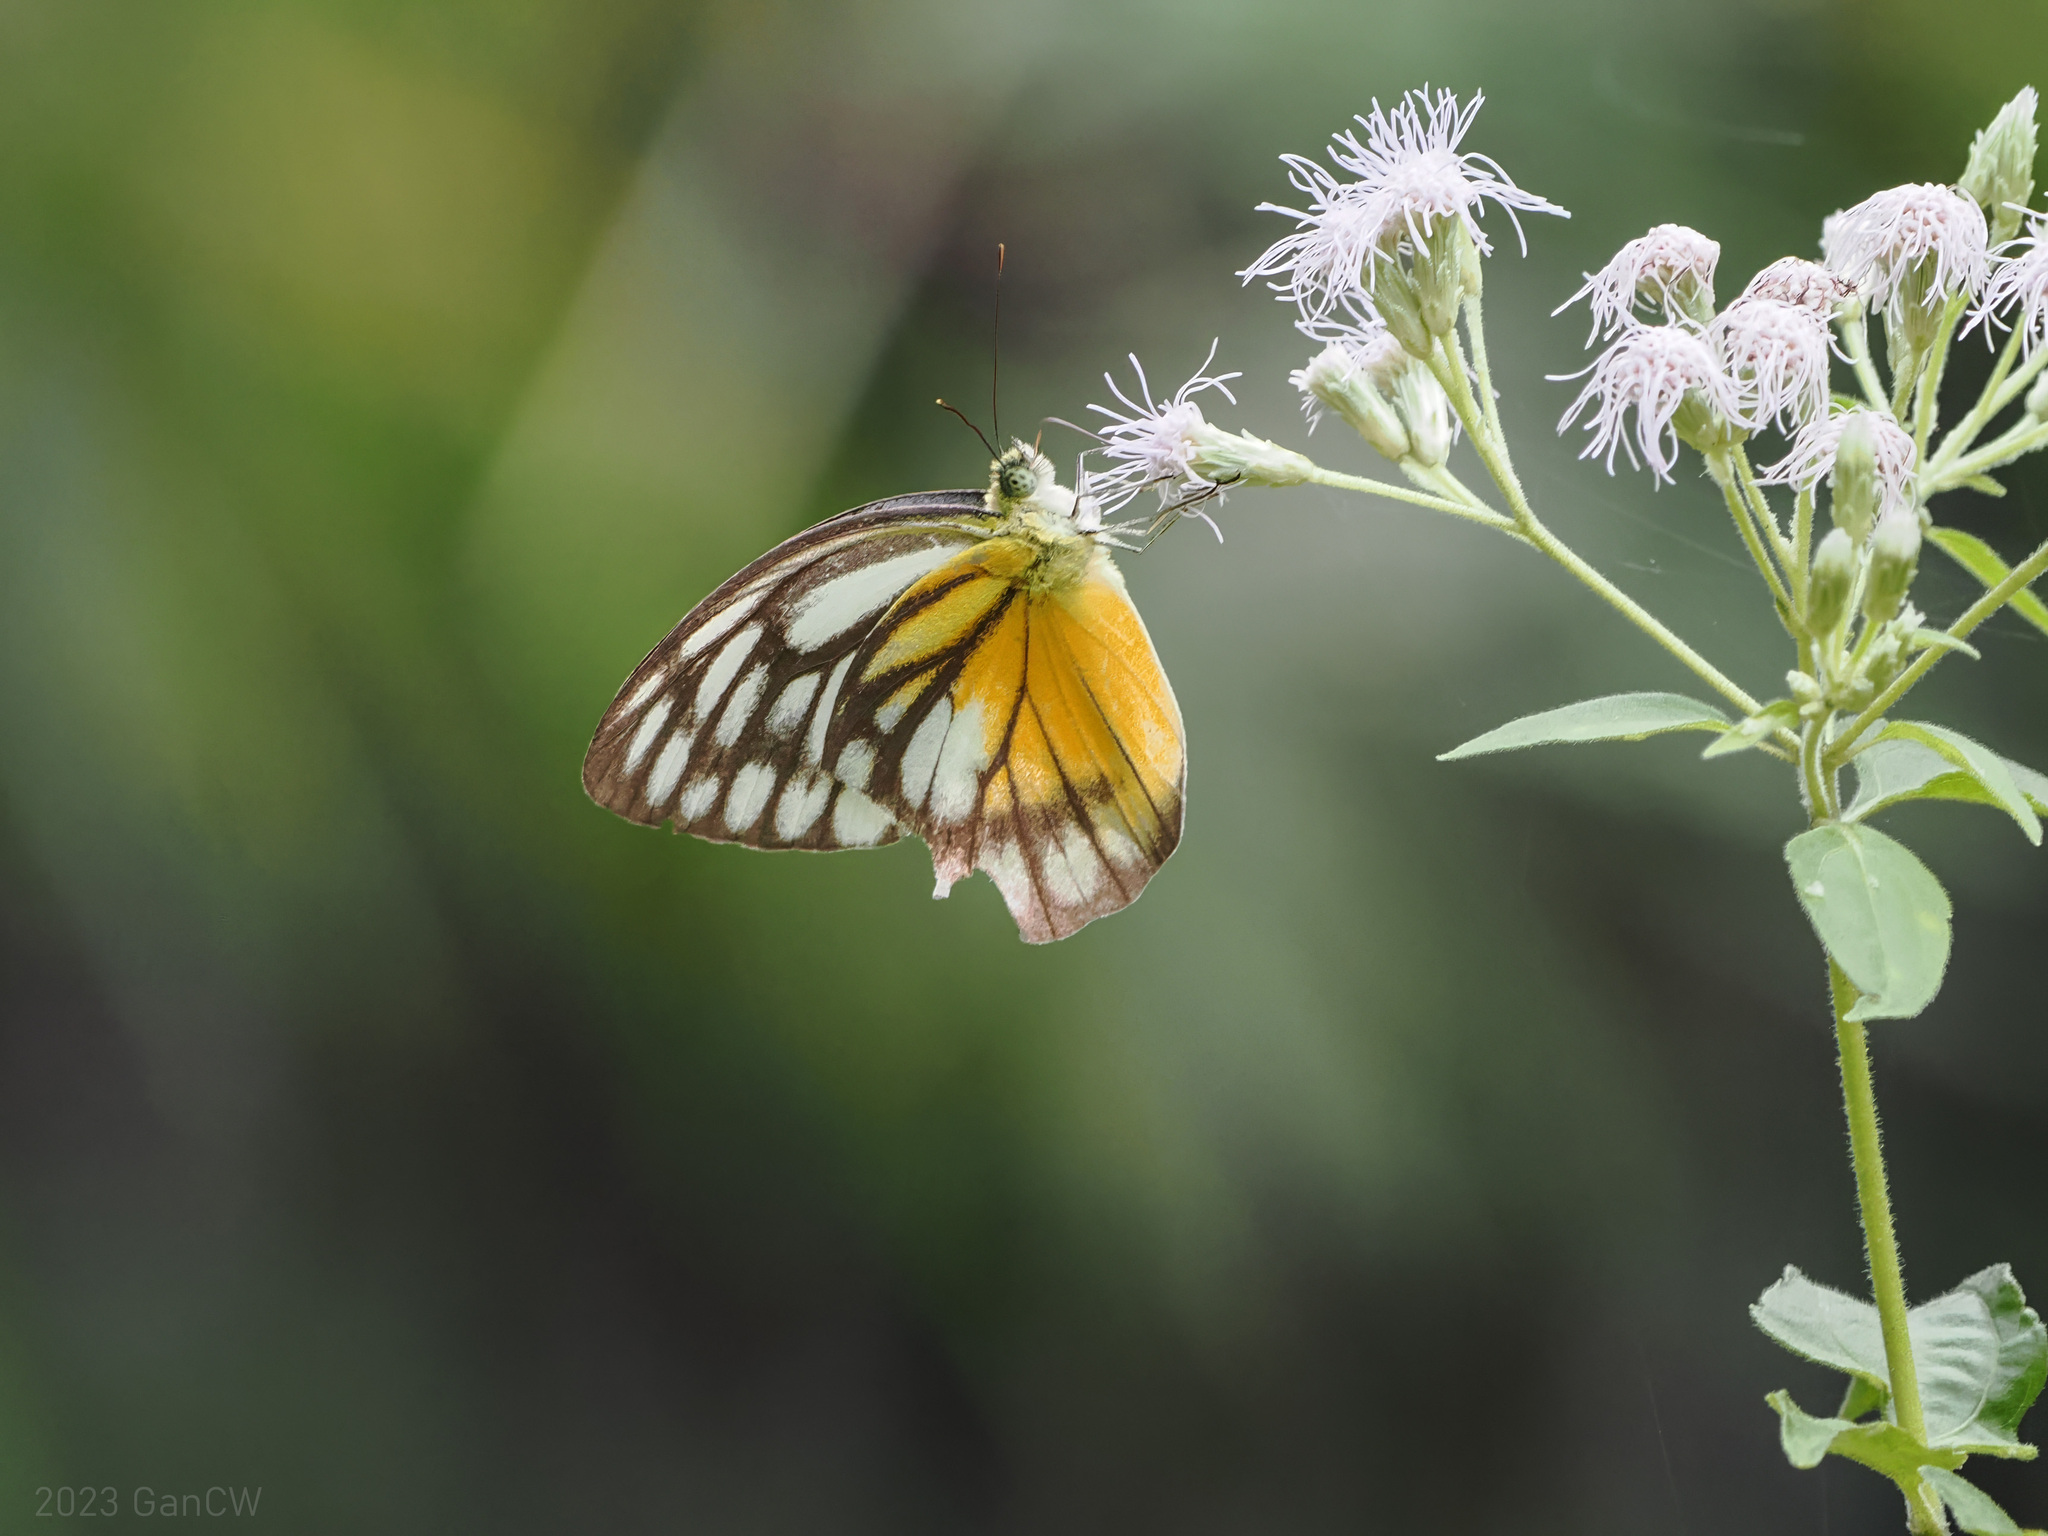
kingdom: Animalia
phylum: Arthropoda
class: Insecta
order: Lepidoptera
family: Pieridae
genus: Cepora
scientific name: Cepora timnatha
